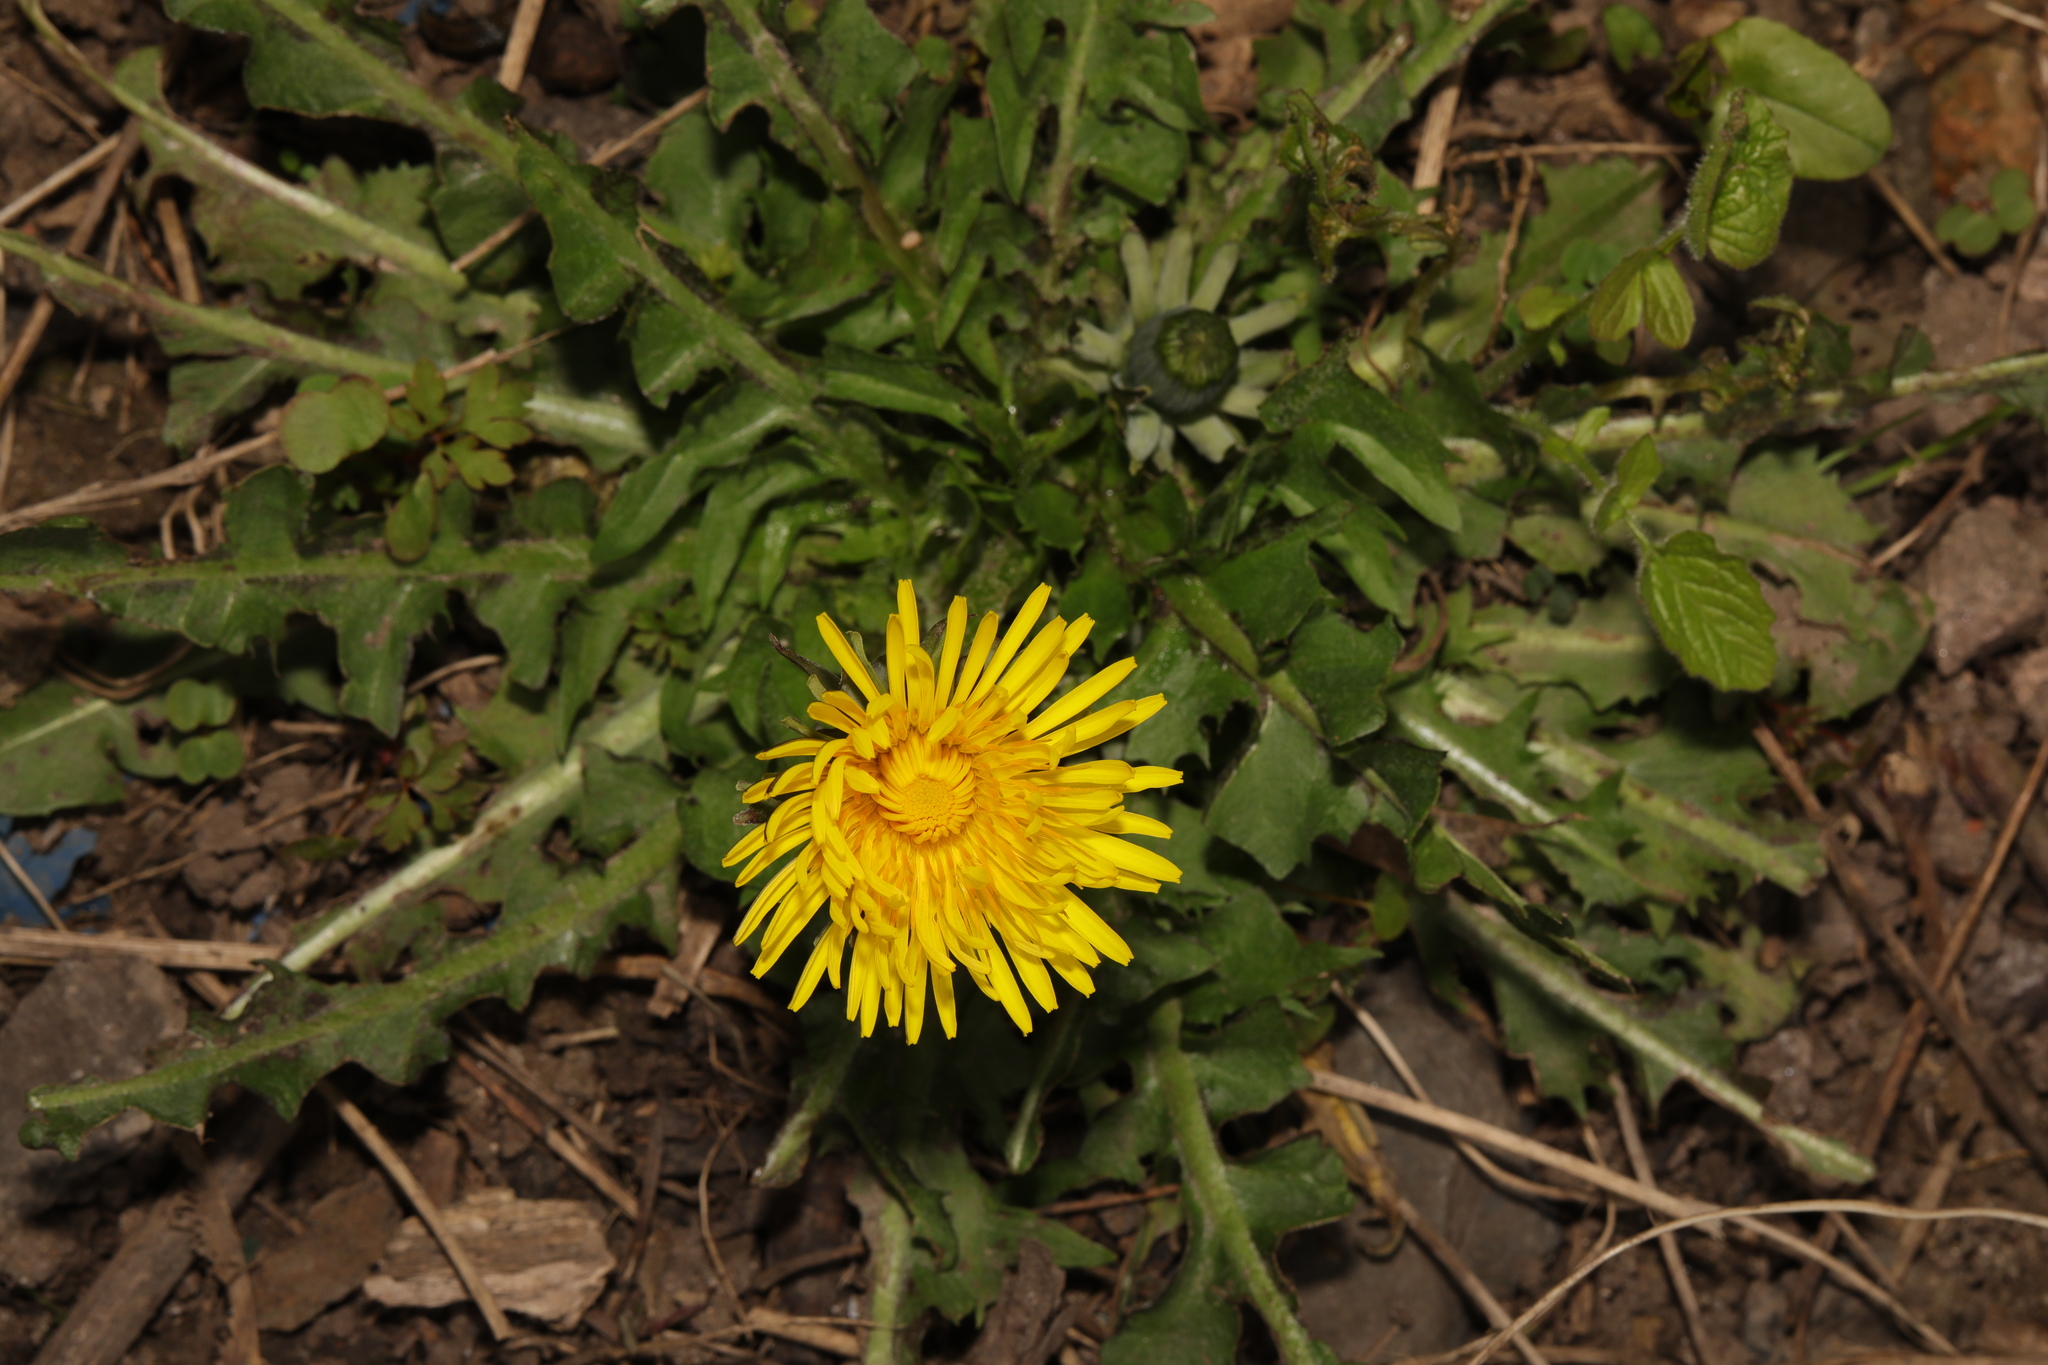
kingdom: Plantae
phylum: Tracheophyta
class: Magnoliopsida
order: Asterales
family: Asteraceae
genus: Taraxacum
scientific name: Taraxacum officinale
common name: Common dandelion
